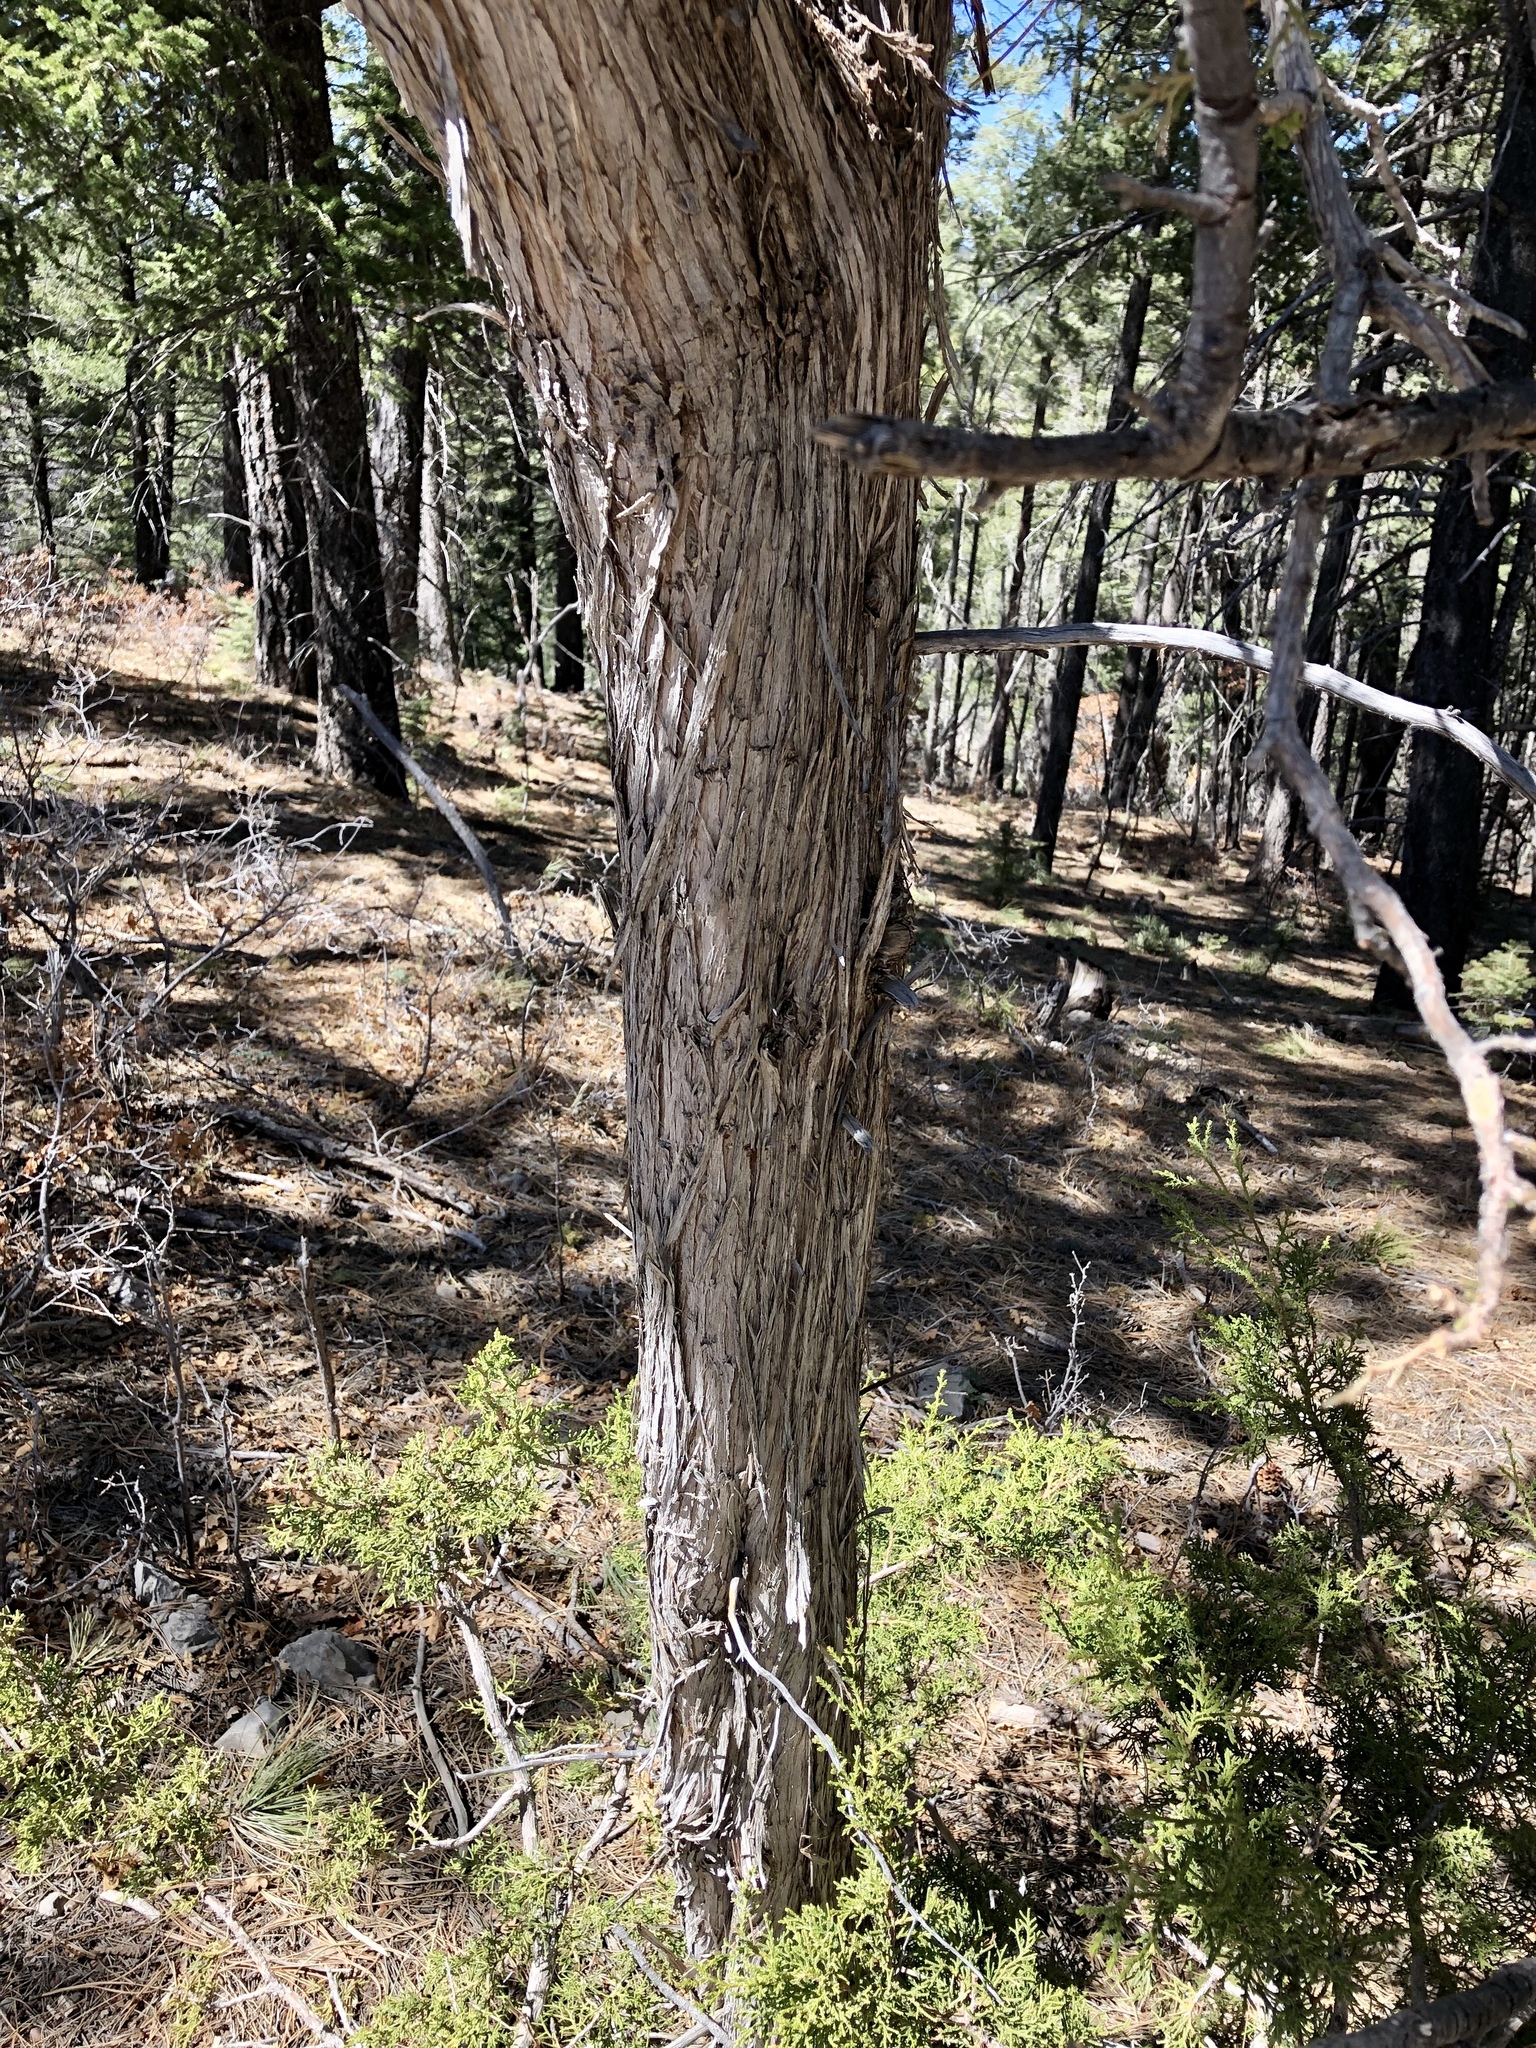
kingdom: Plantae
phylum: Tracheophyta
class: Pinopsida
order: Pinales
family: Cupressaceae
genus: Juniperus
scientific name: Juniperus monosperma
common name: One-seed juniper
